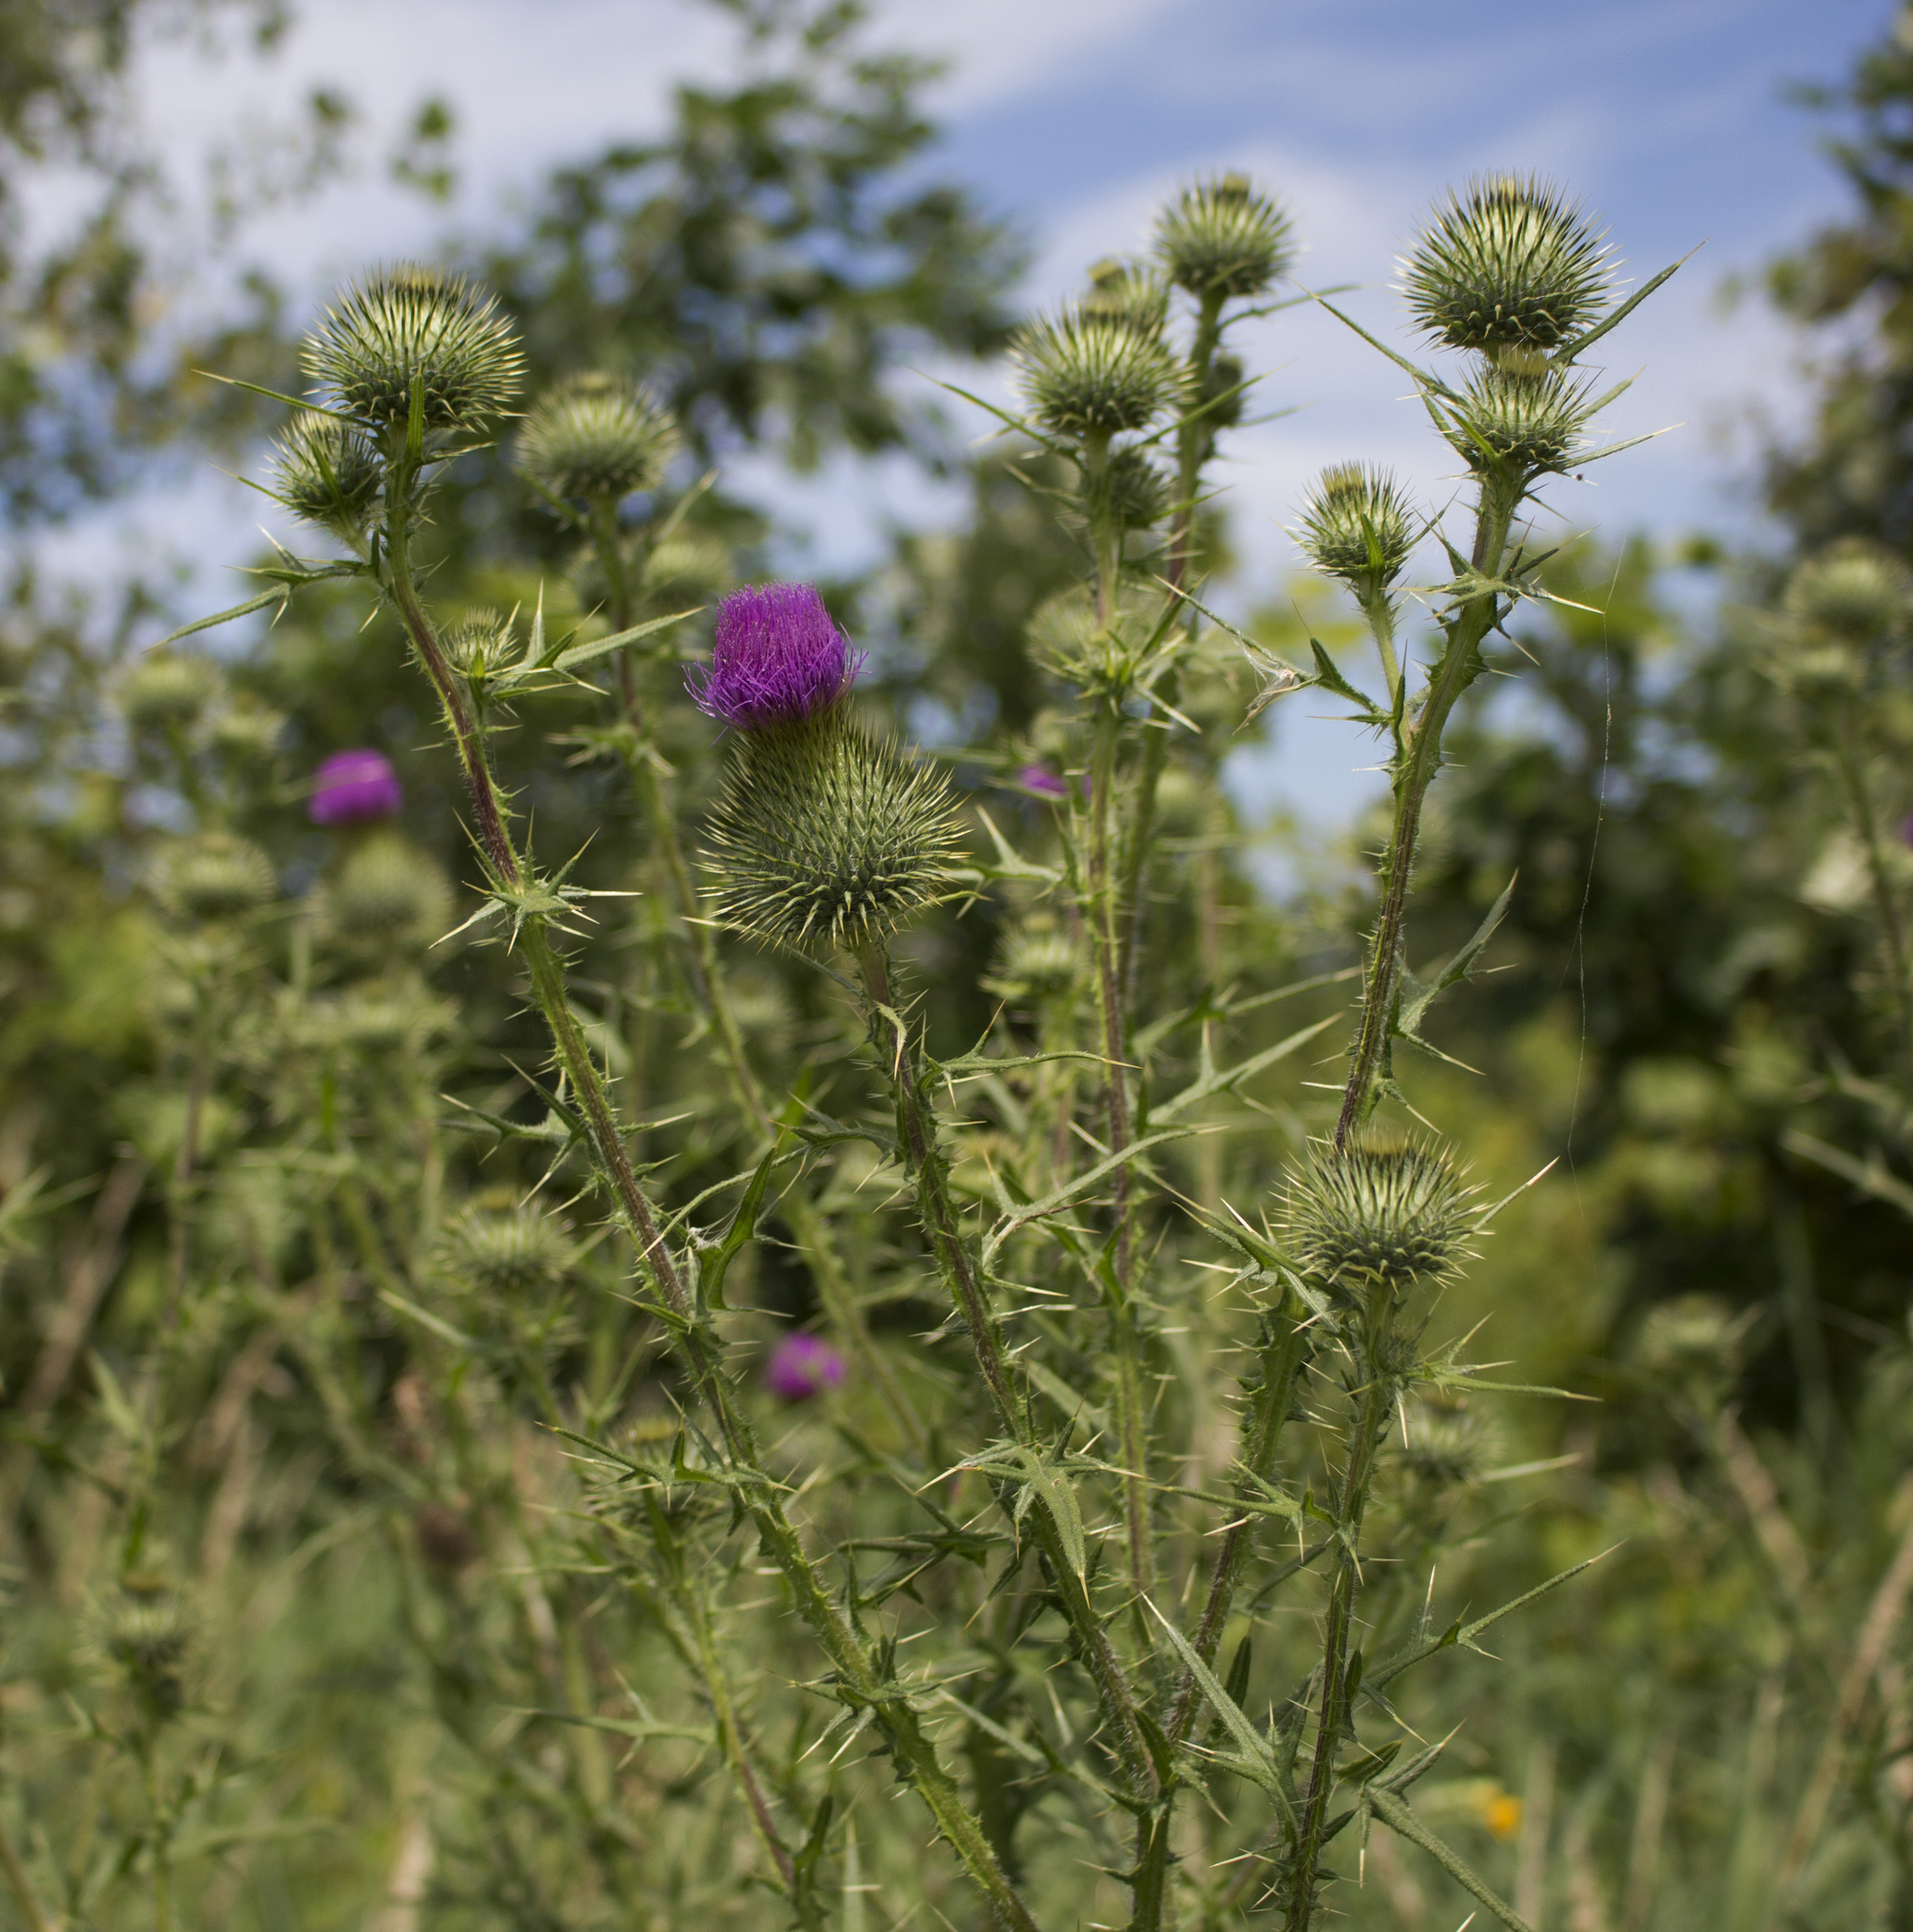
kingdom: Plantae
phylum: Tracheophyta
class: Magnoliopsida
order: Asterales
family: Asteraceae
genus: Cirsium
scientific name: Cirsium vulgare
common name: Bull thistle
